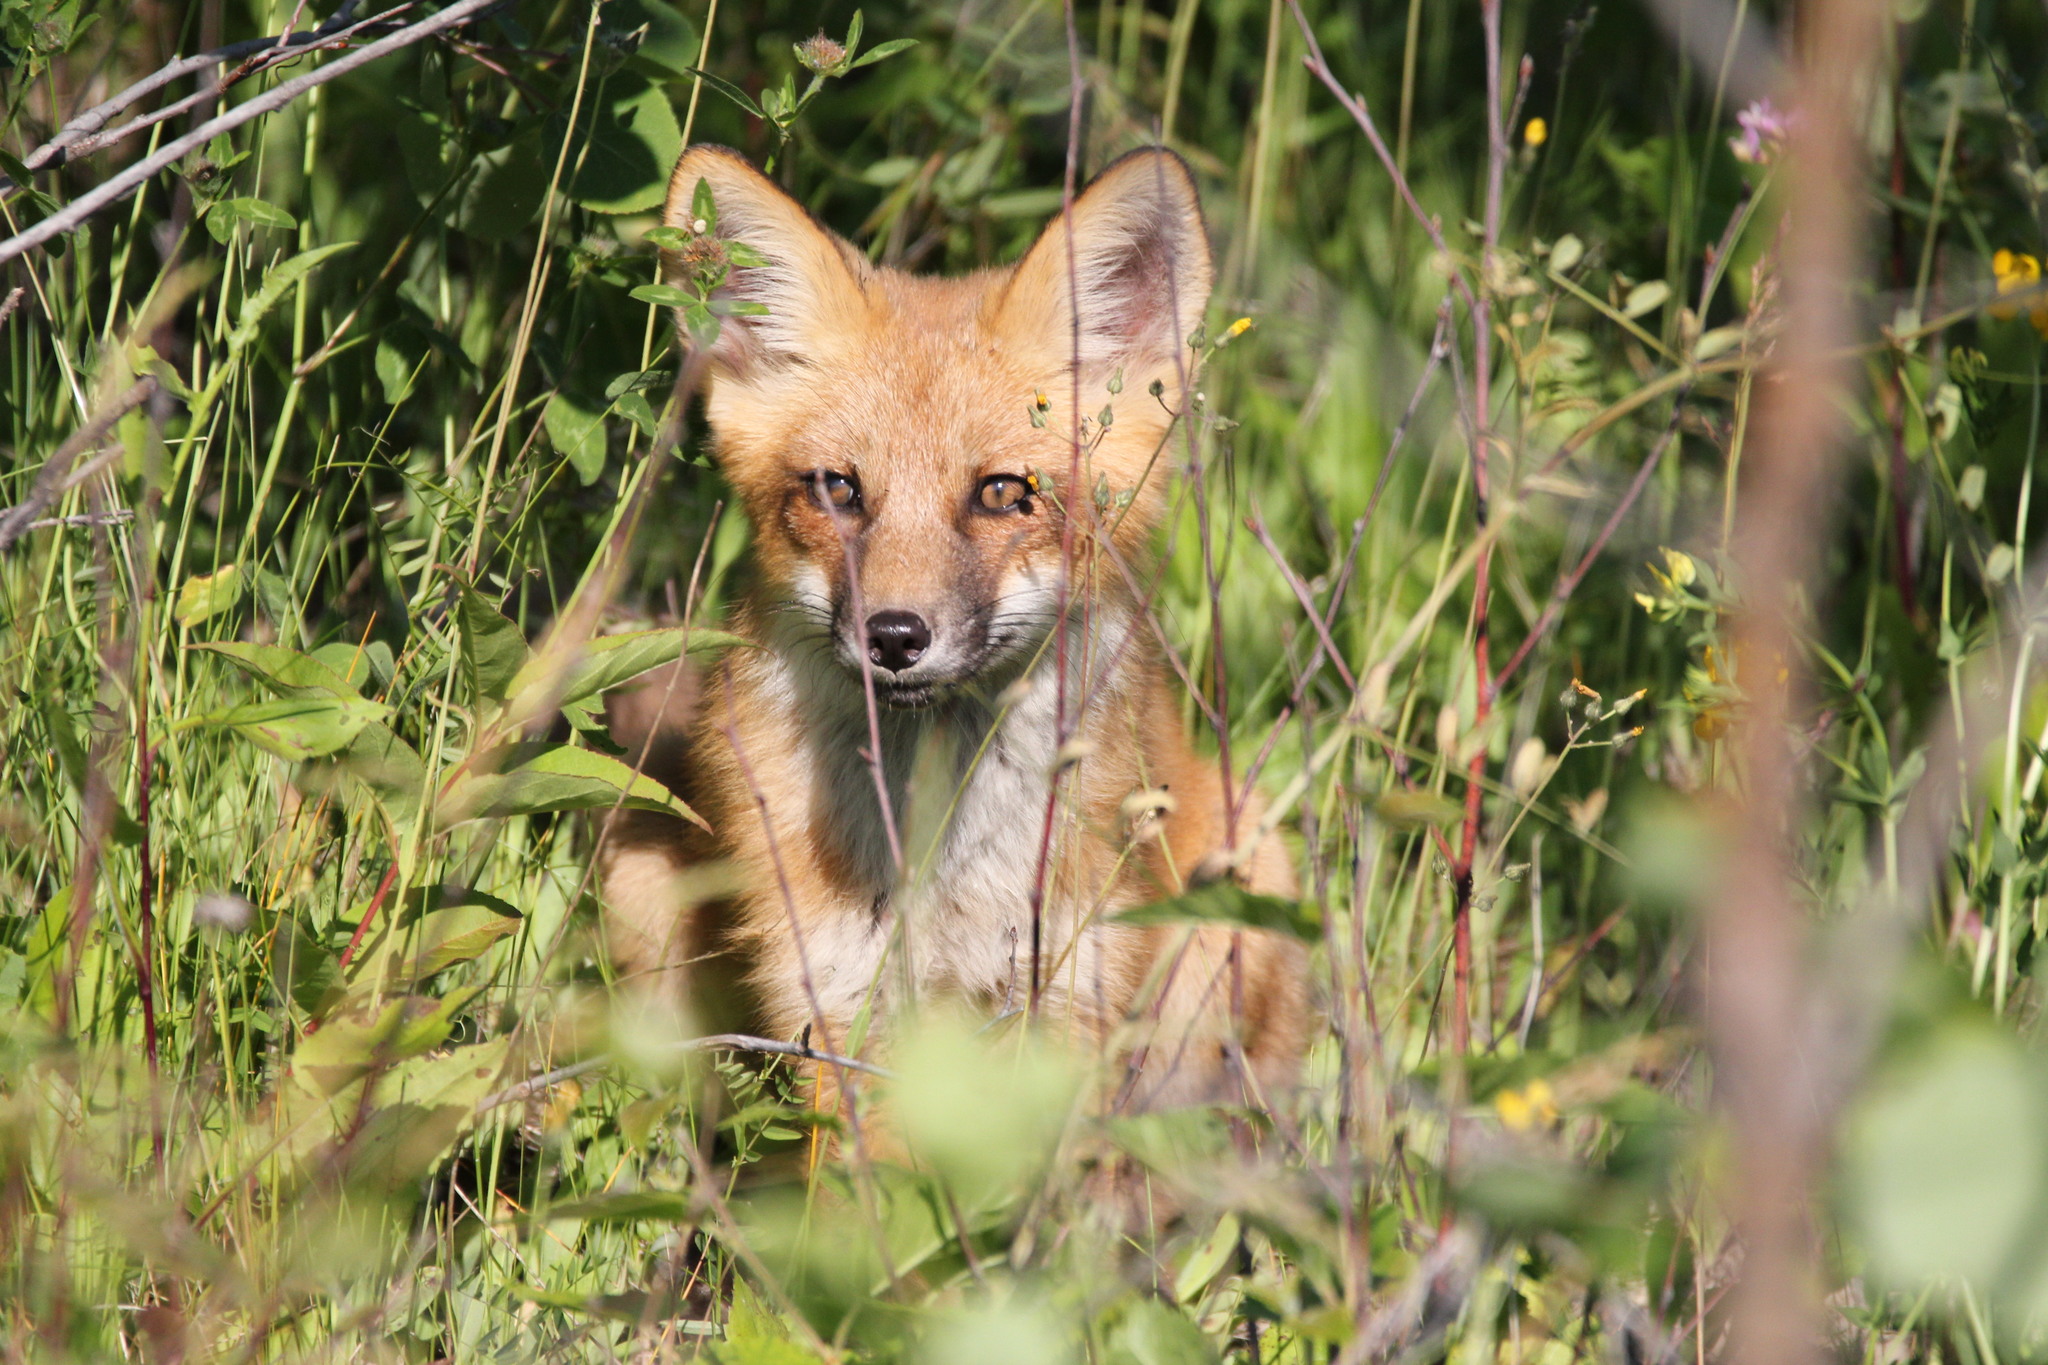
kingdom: Animalia
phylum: Chordata
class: Mammalia
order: Carnivora
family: Canidae
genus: Vulpes
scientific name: Vulpes vulpes
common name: Red fox
